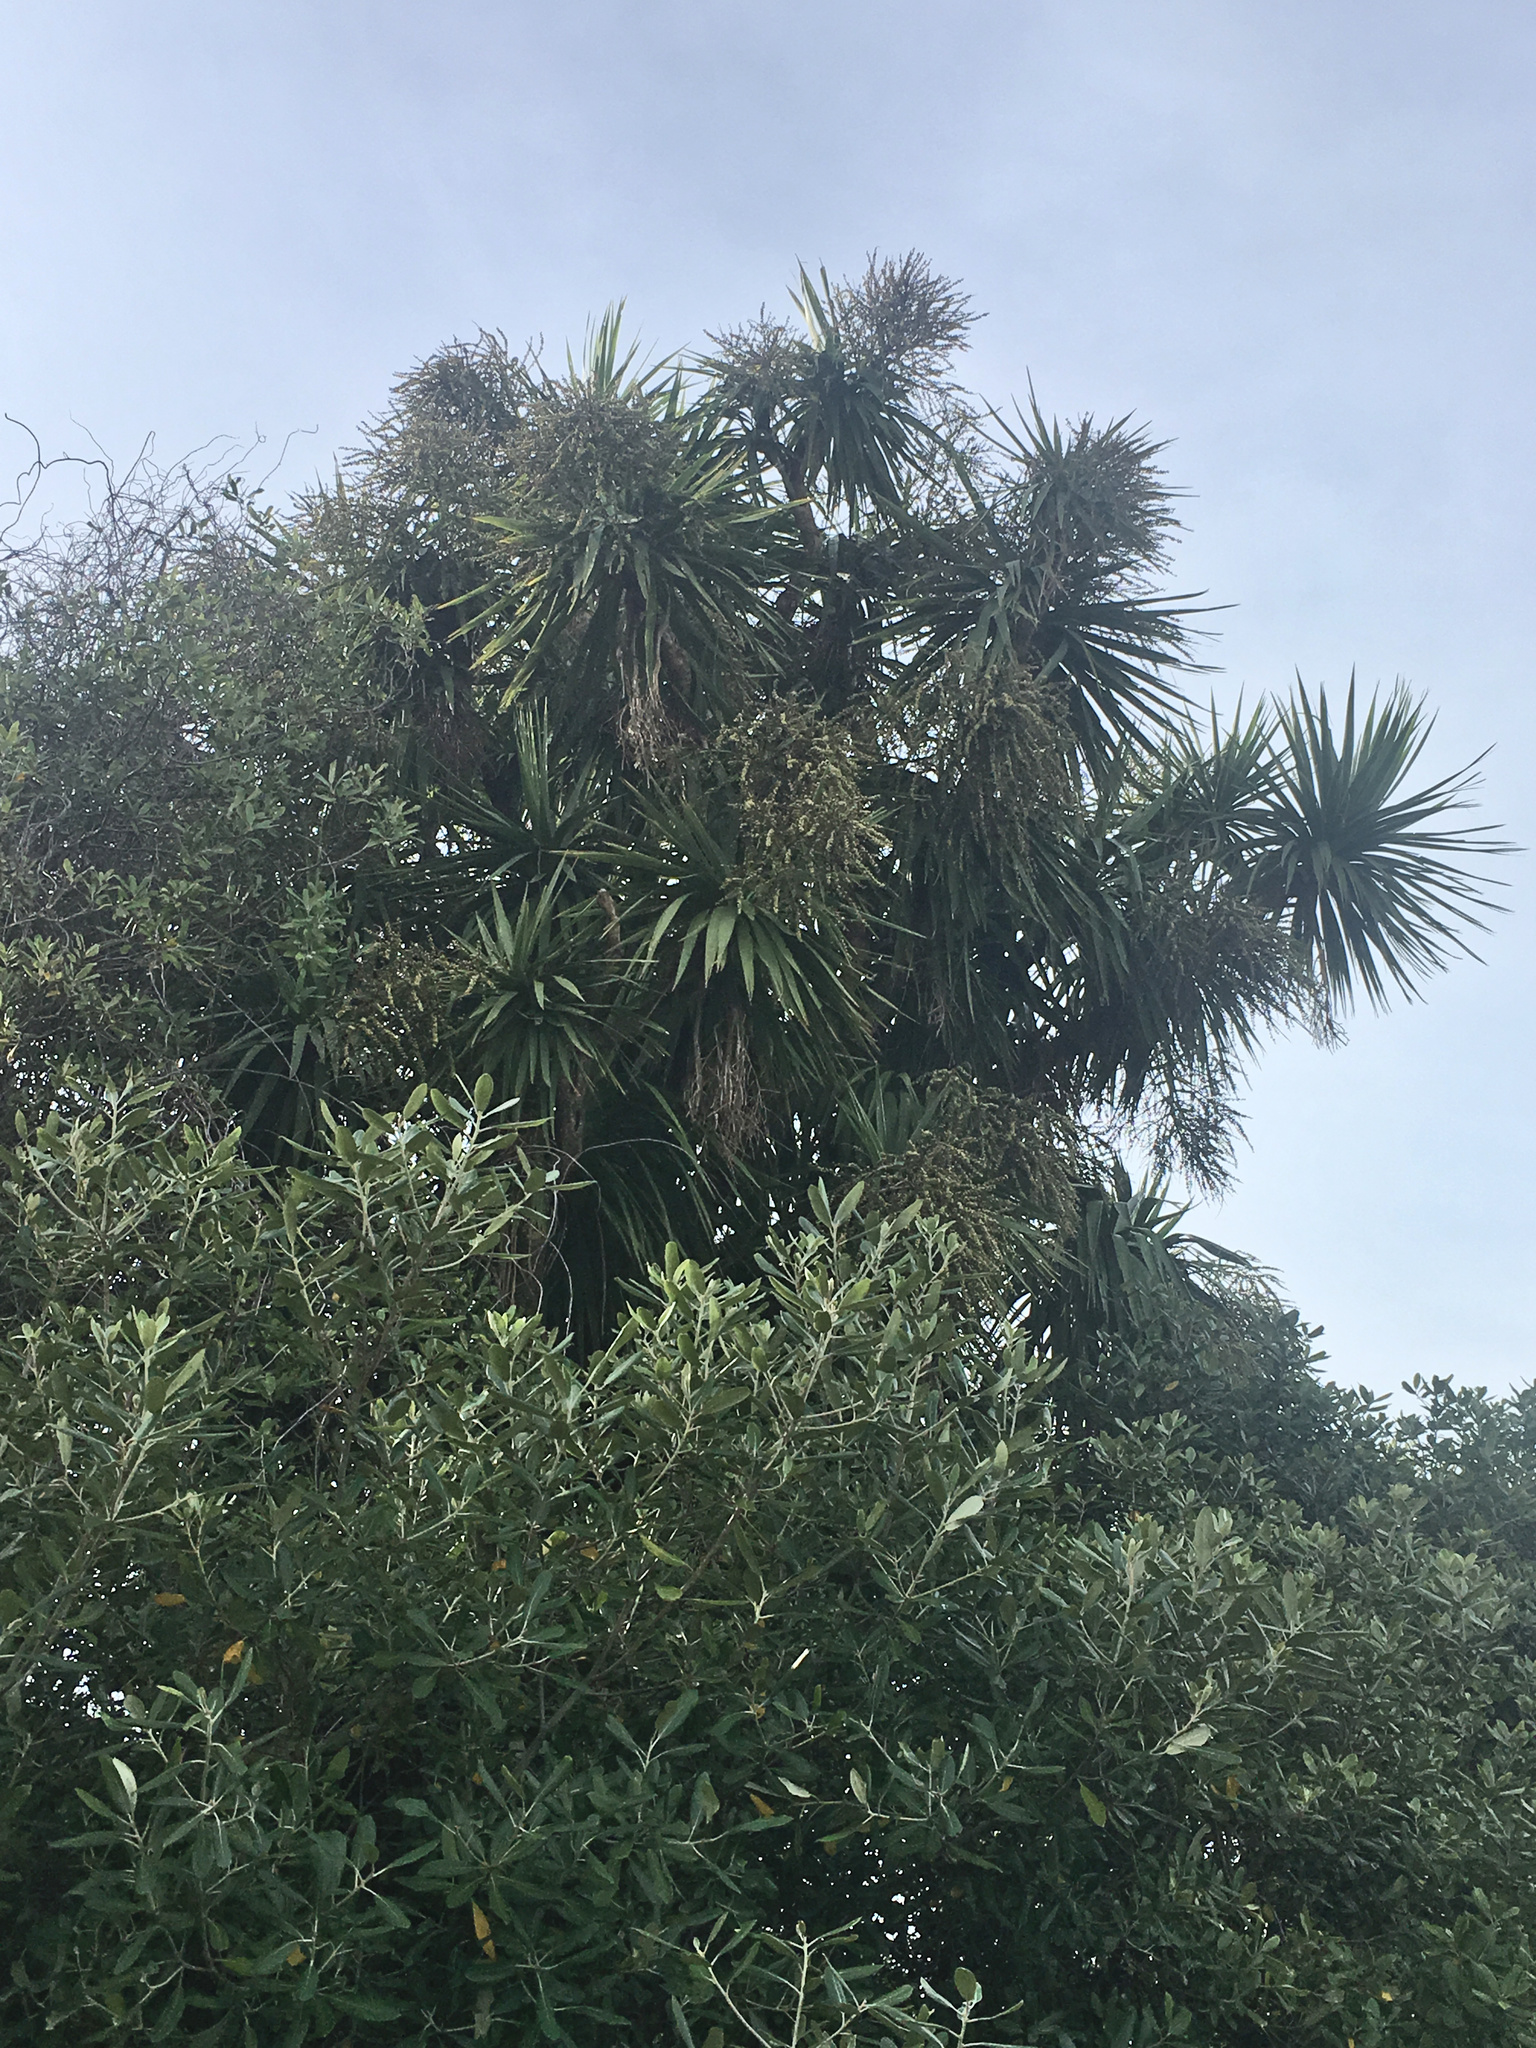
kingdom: Plantae
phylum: Tracheophyta
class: Liliopsida
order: Asparagales
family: Asparagaceae
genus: Cordyline
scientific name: Cordyline australis
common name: Cabbage-palm
